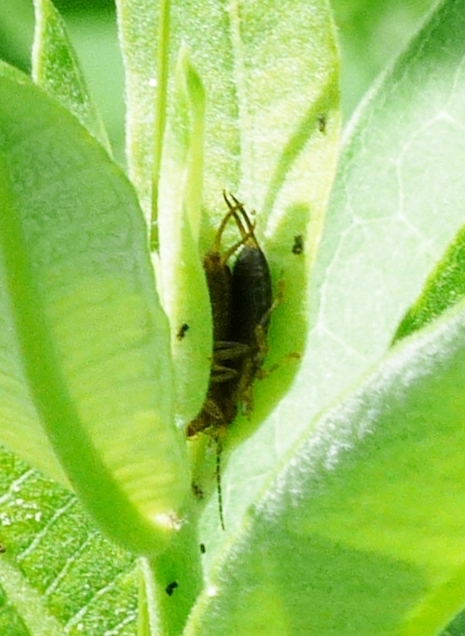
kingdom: Animalia
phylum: Arthropoda
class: Insecta
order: Dermaptera
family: Forficulidae
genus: Forficula
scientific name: Forficula
